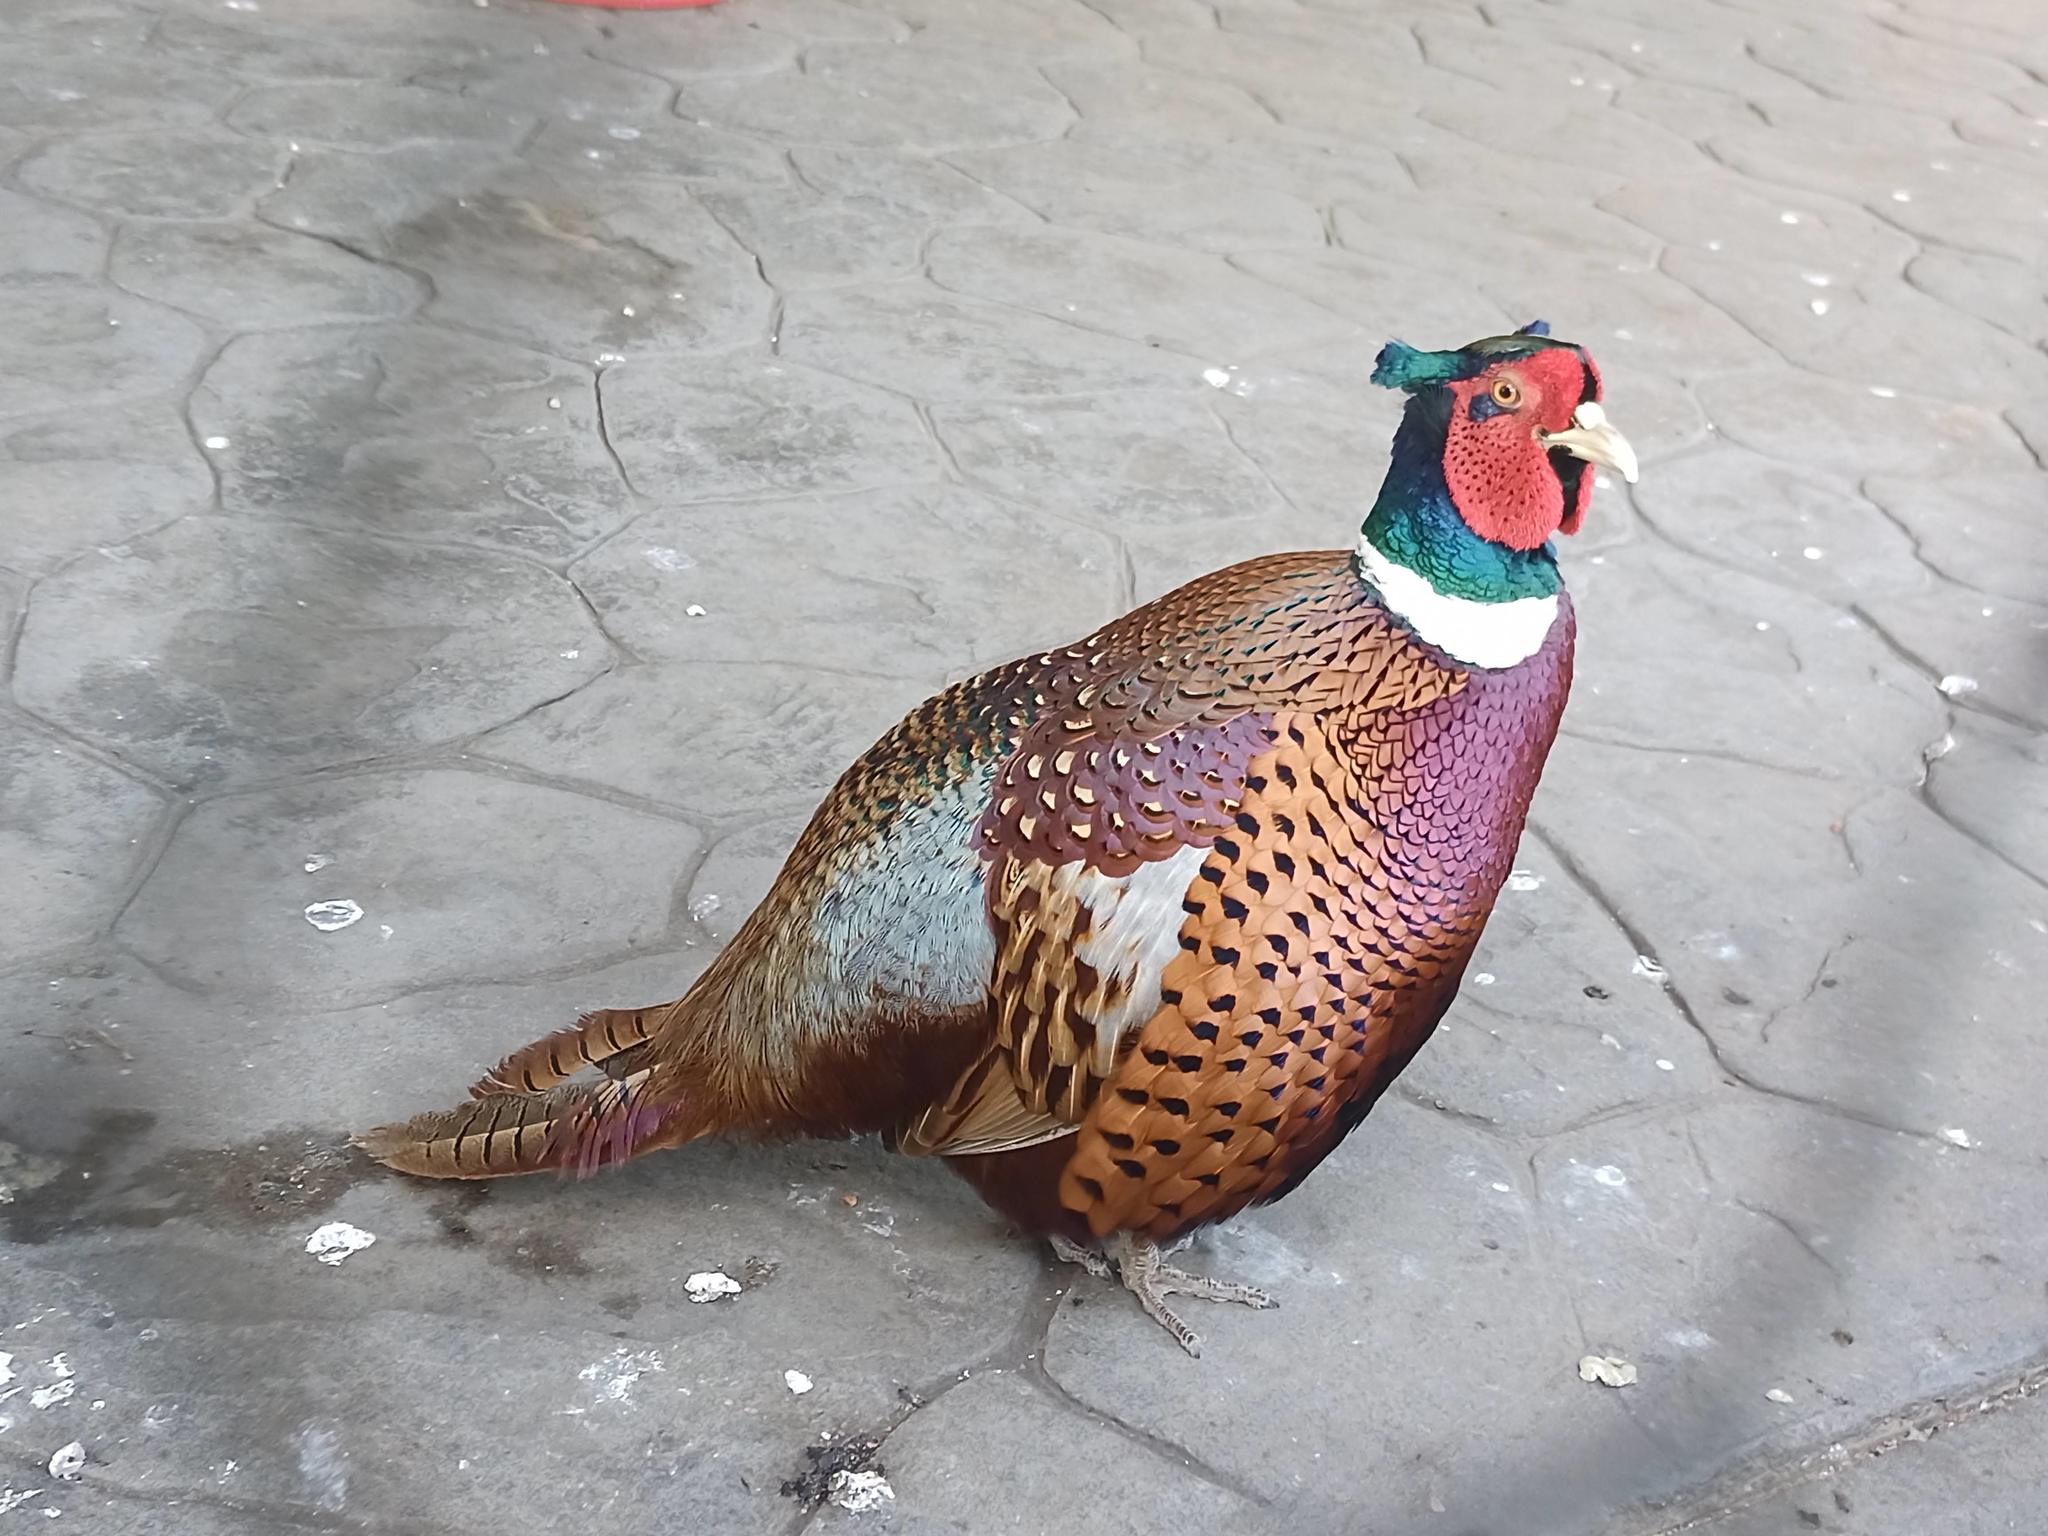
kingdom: Animalia
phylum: Chordata
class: Aves
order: Galliformes
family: Phasianidae
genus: Phasianus
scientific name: Phasianus colchicus
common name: Common pheasant
